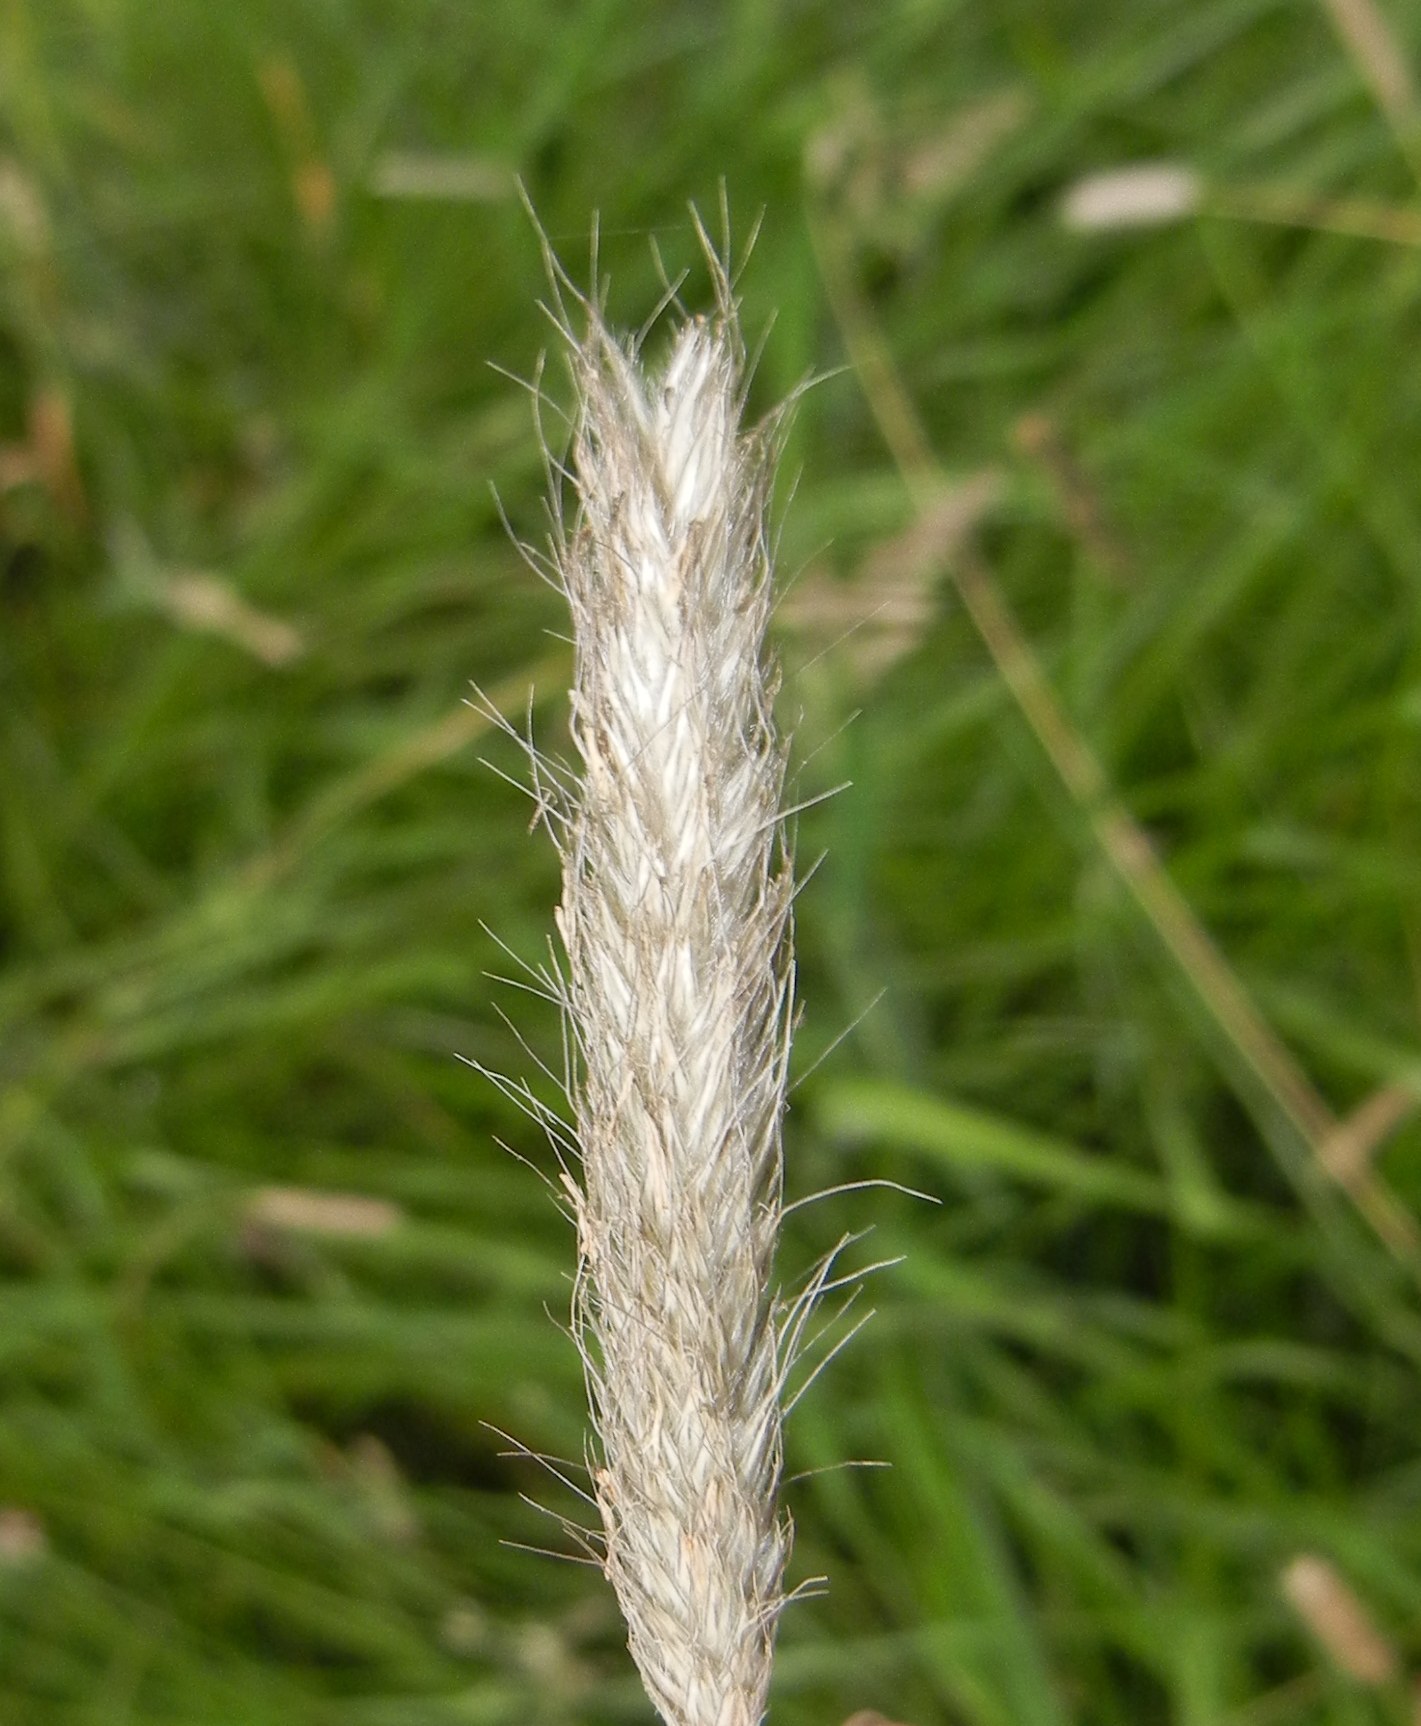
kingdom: Plantae
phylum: Tracheophyta
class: Liliopsida
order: Poales
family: Poaceae
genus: Alopecurus
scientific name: Alopecurus pratensis
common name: Meadow foxtail
